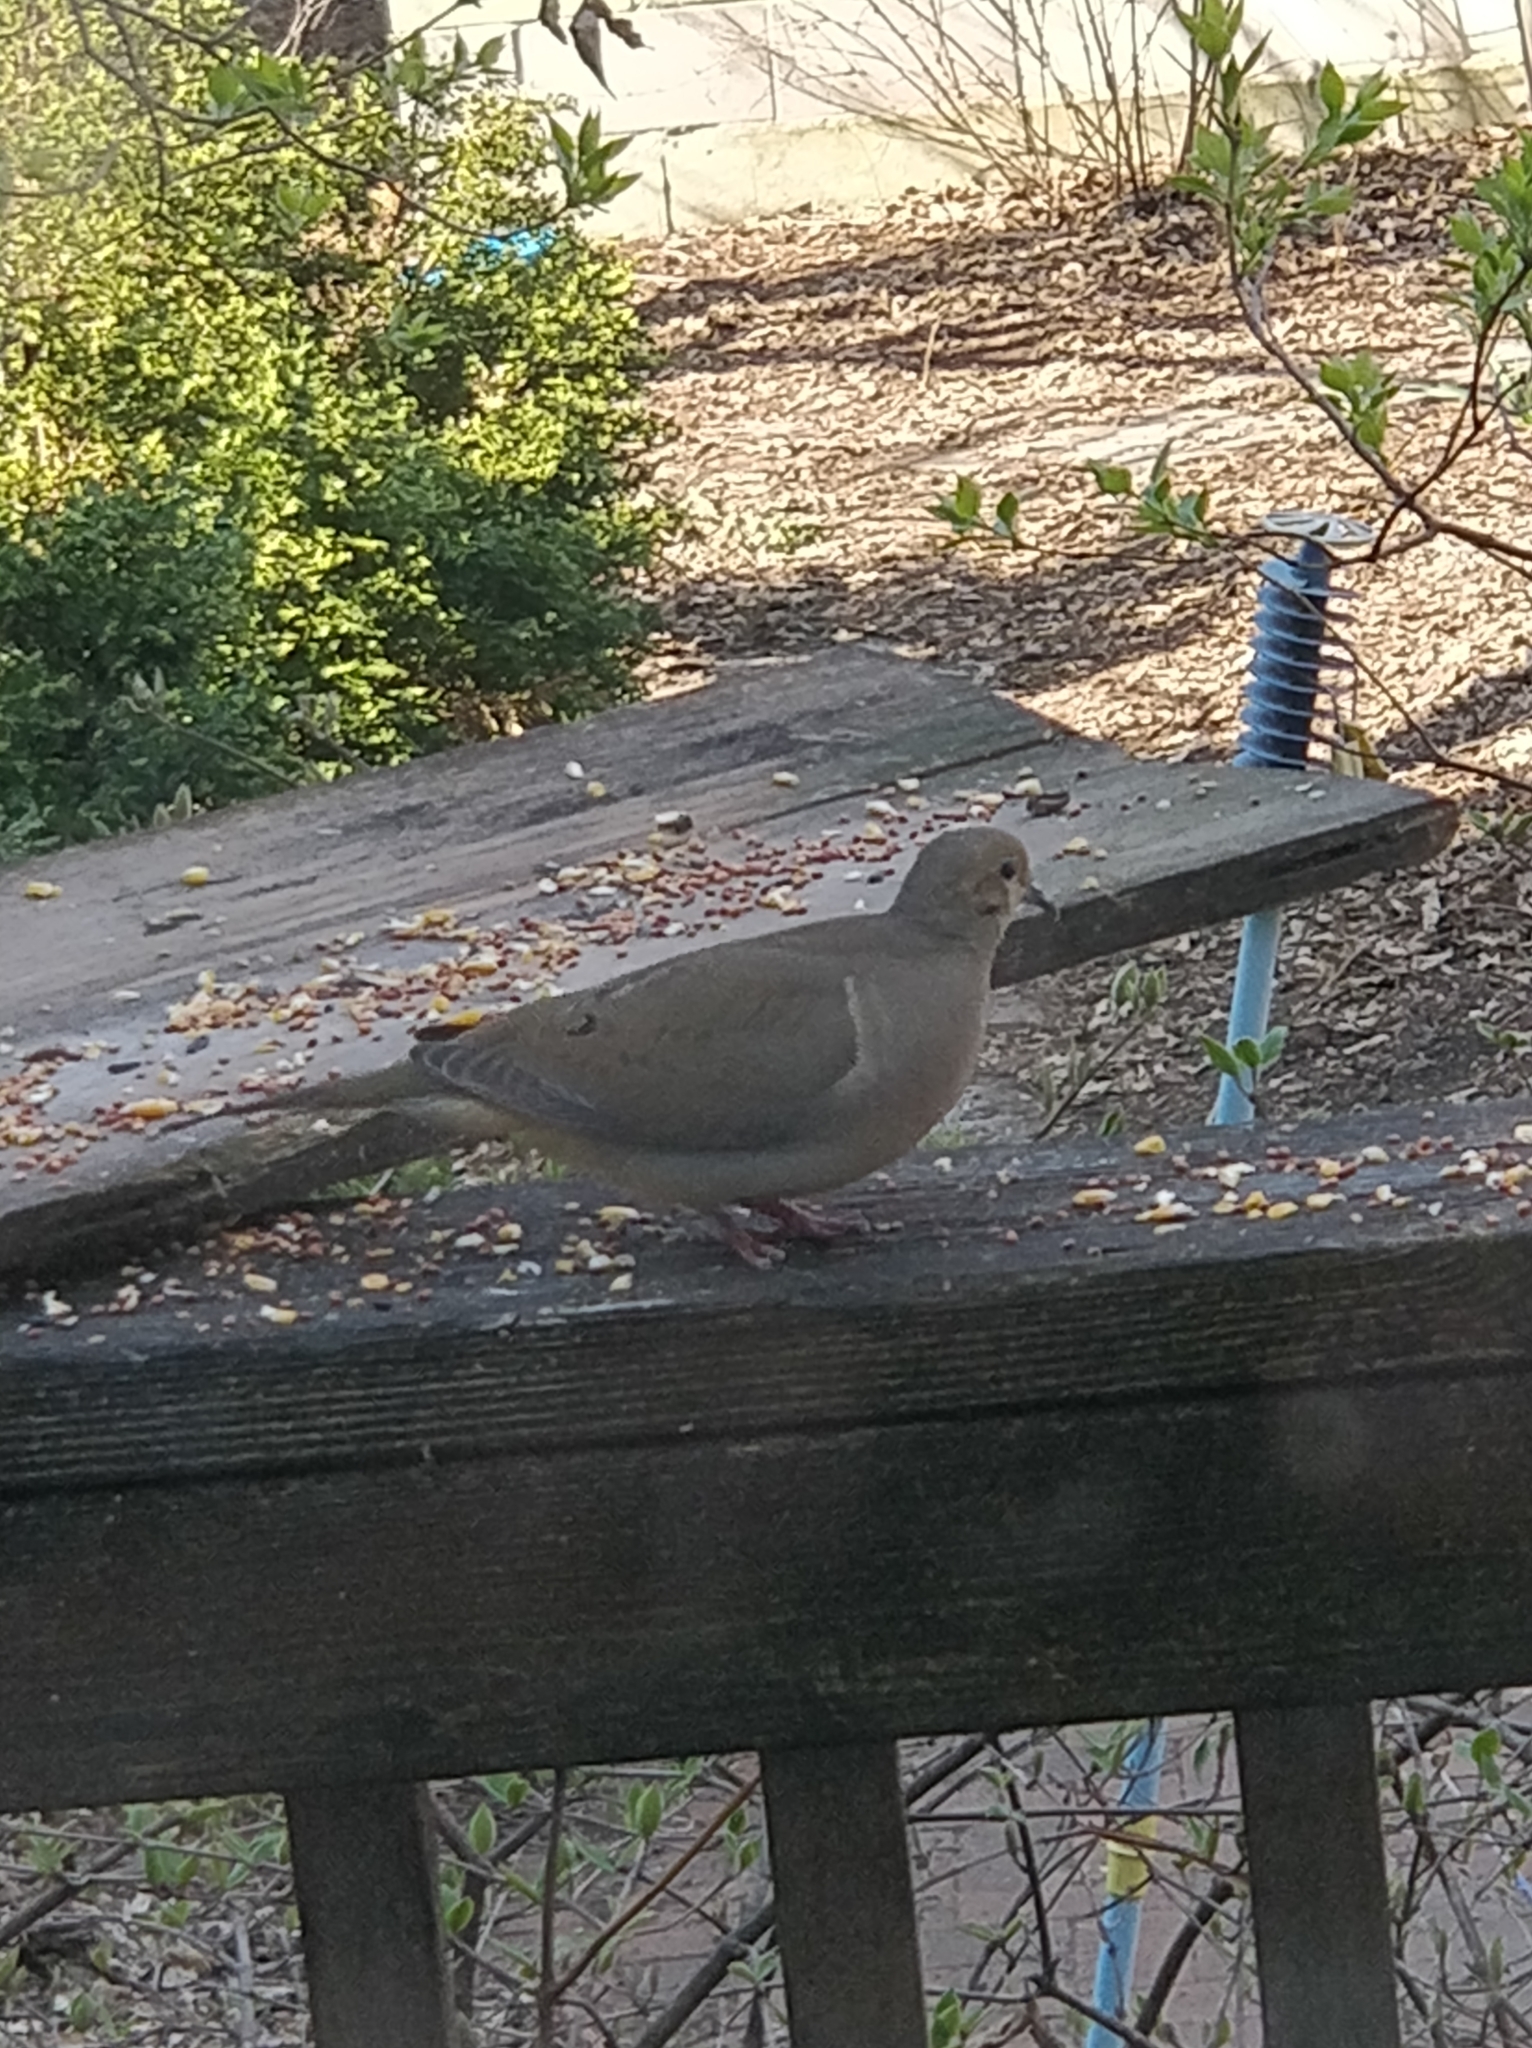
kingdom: Animalia
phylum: Chordata
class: Aves
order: Columbiformes
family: Columbidae
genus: Zenaida
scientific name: Zenaida macroura
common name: Mourning dove
